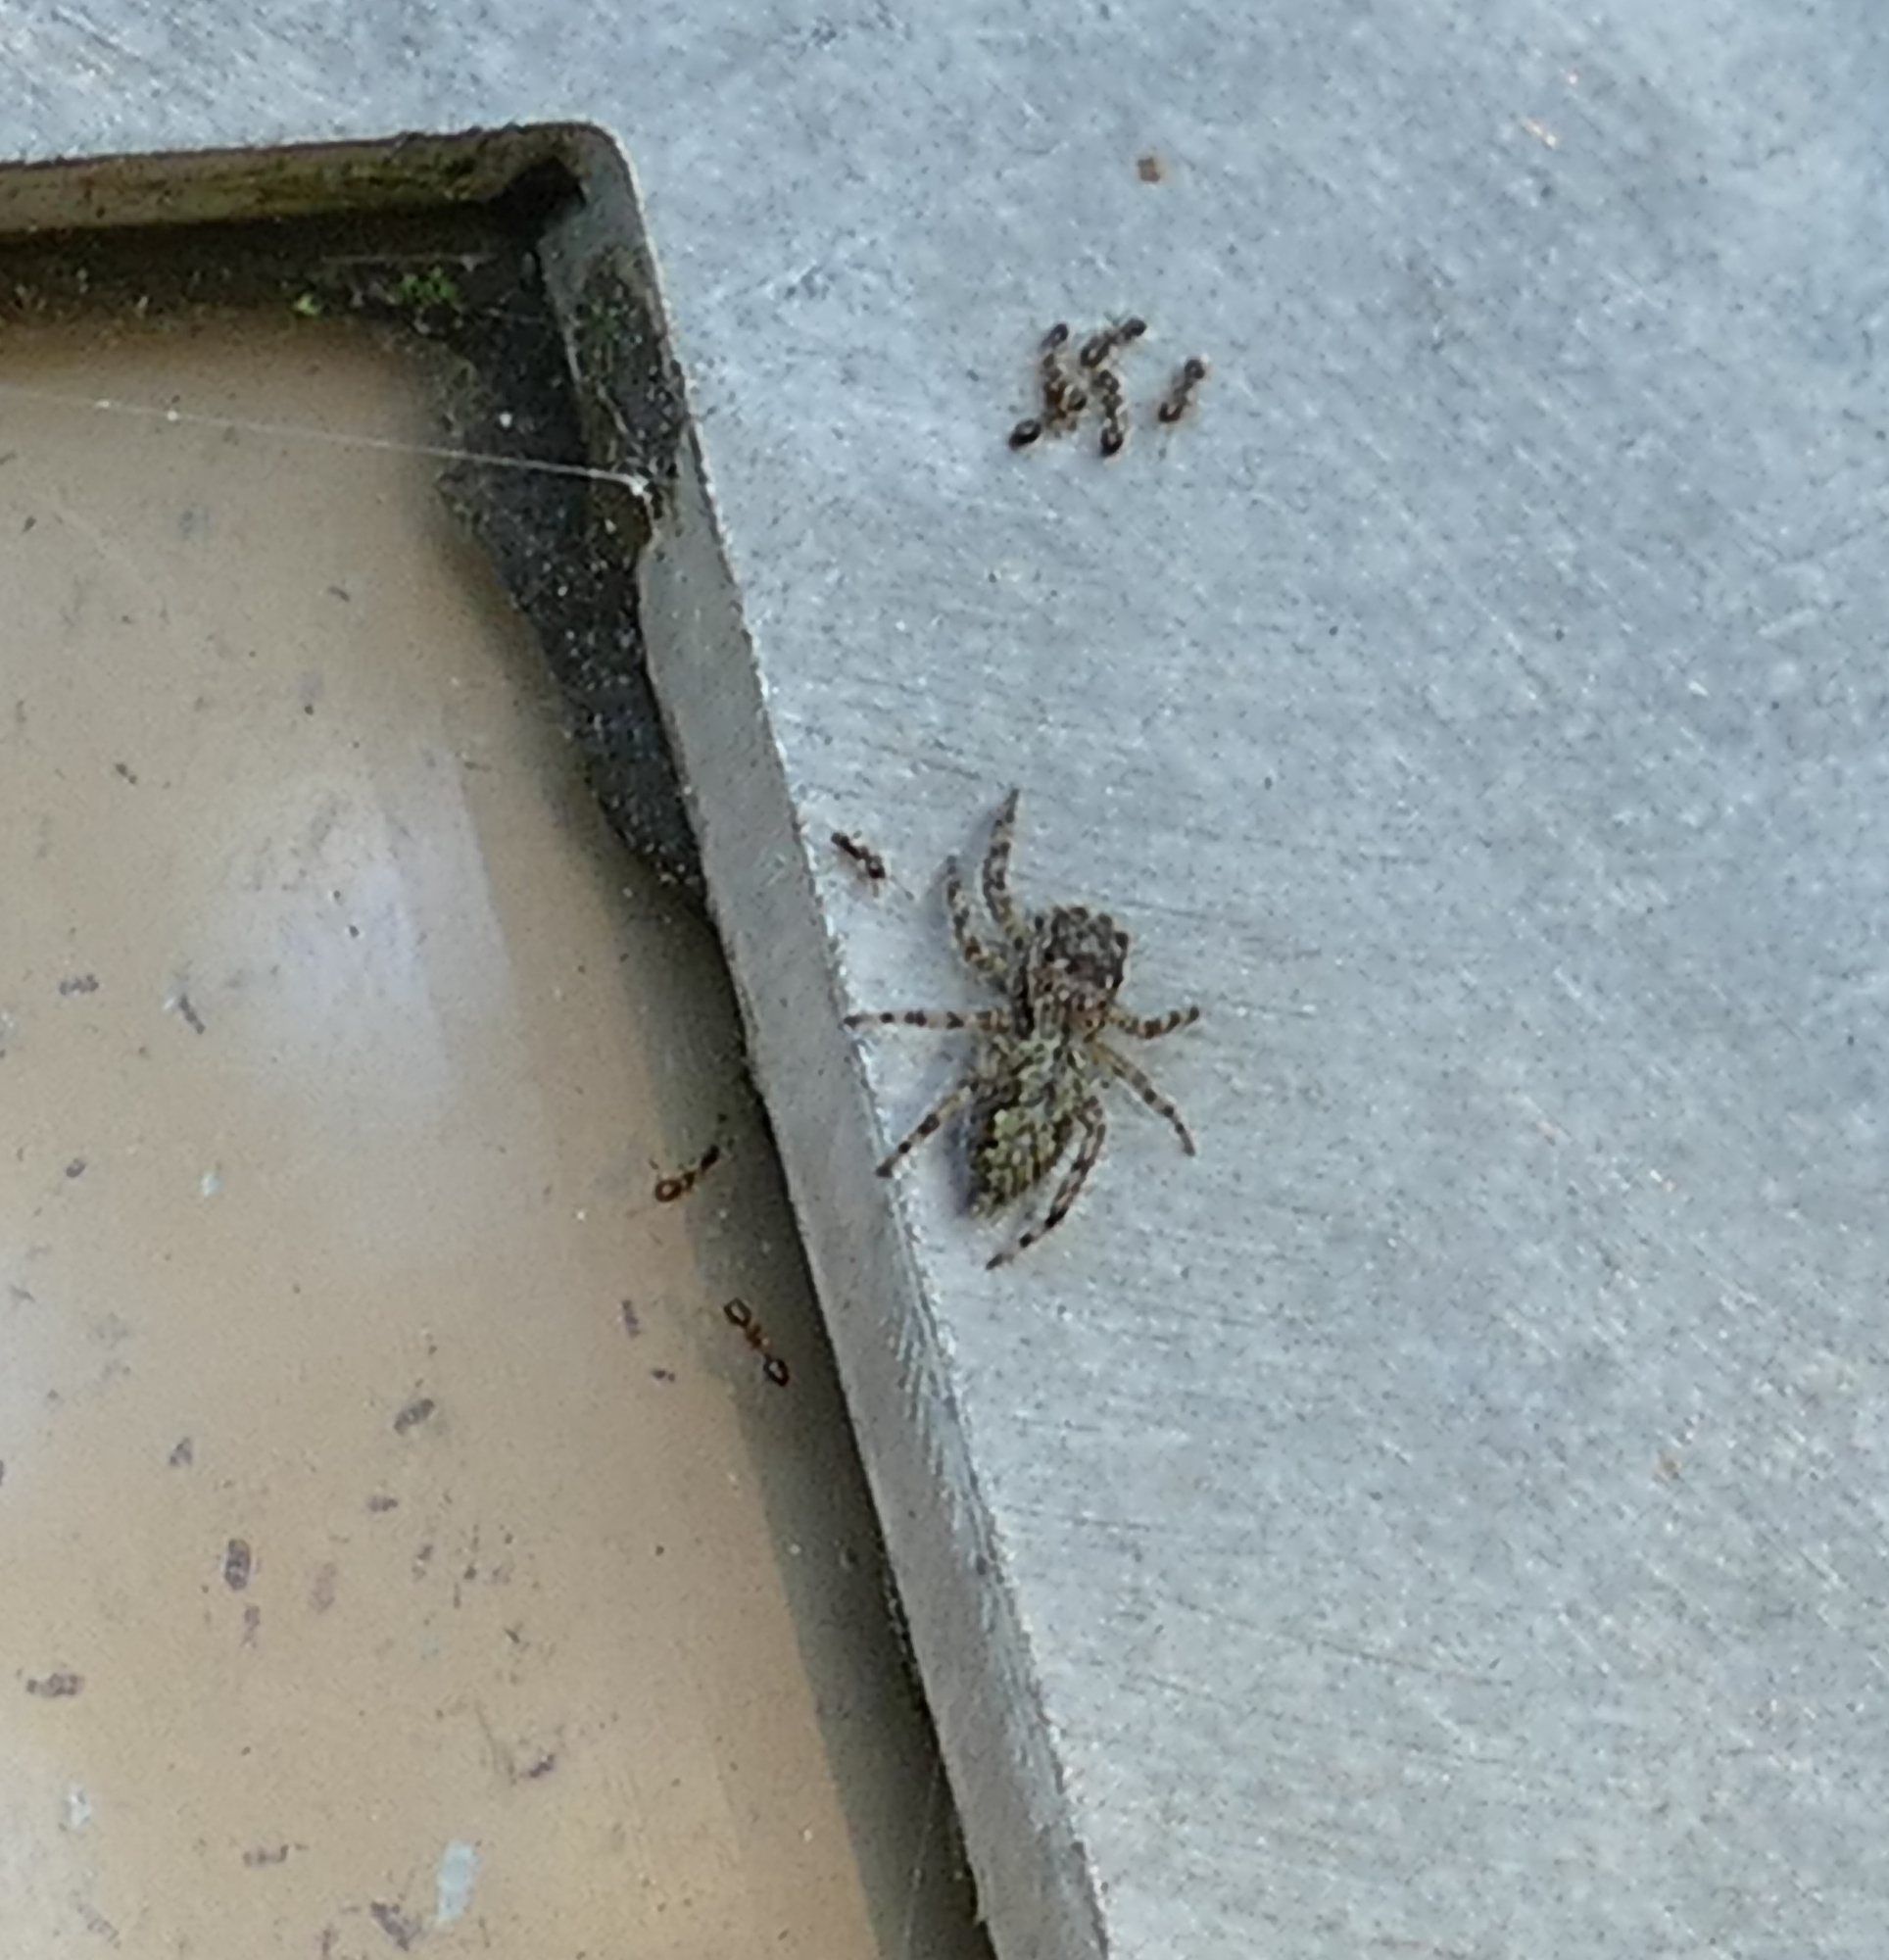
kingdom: Animalia
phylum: Arthropoda
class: Arachnida
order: Araneae
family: Salticidae
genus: Platycryptus
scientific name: Platycryptus undatus
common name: Tan jumping spider
